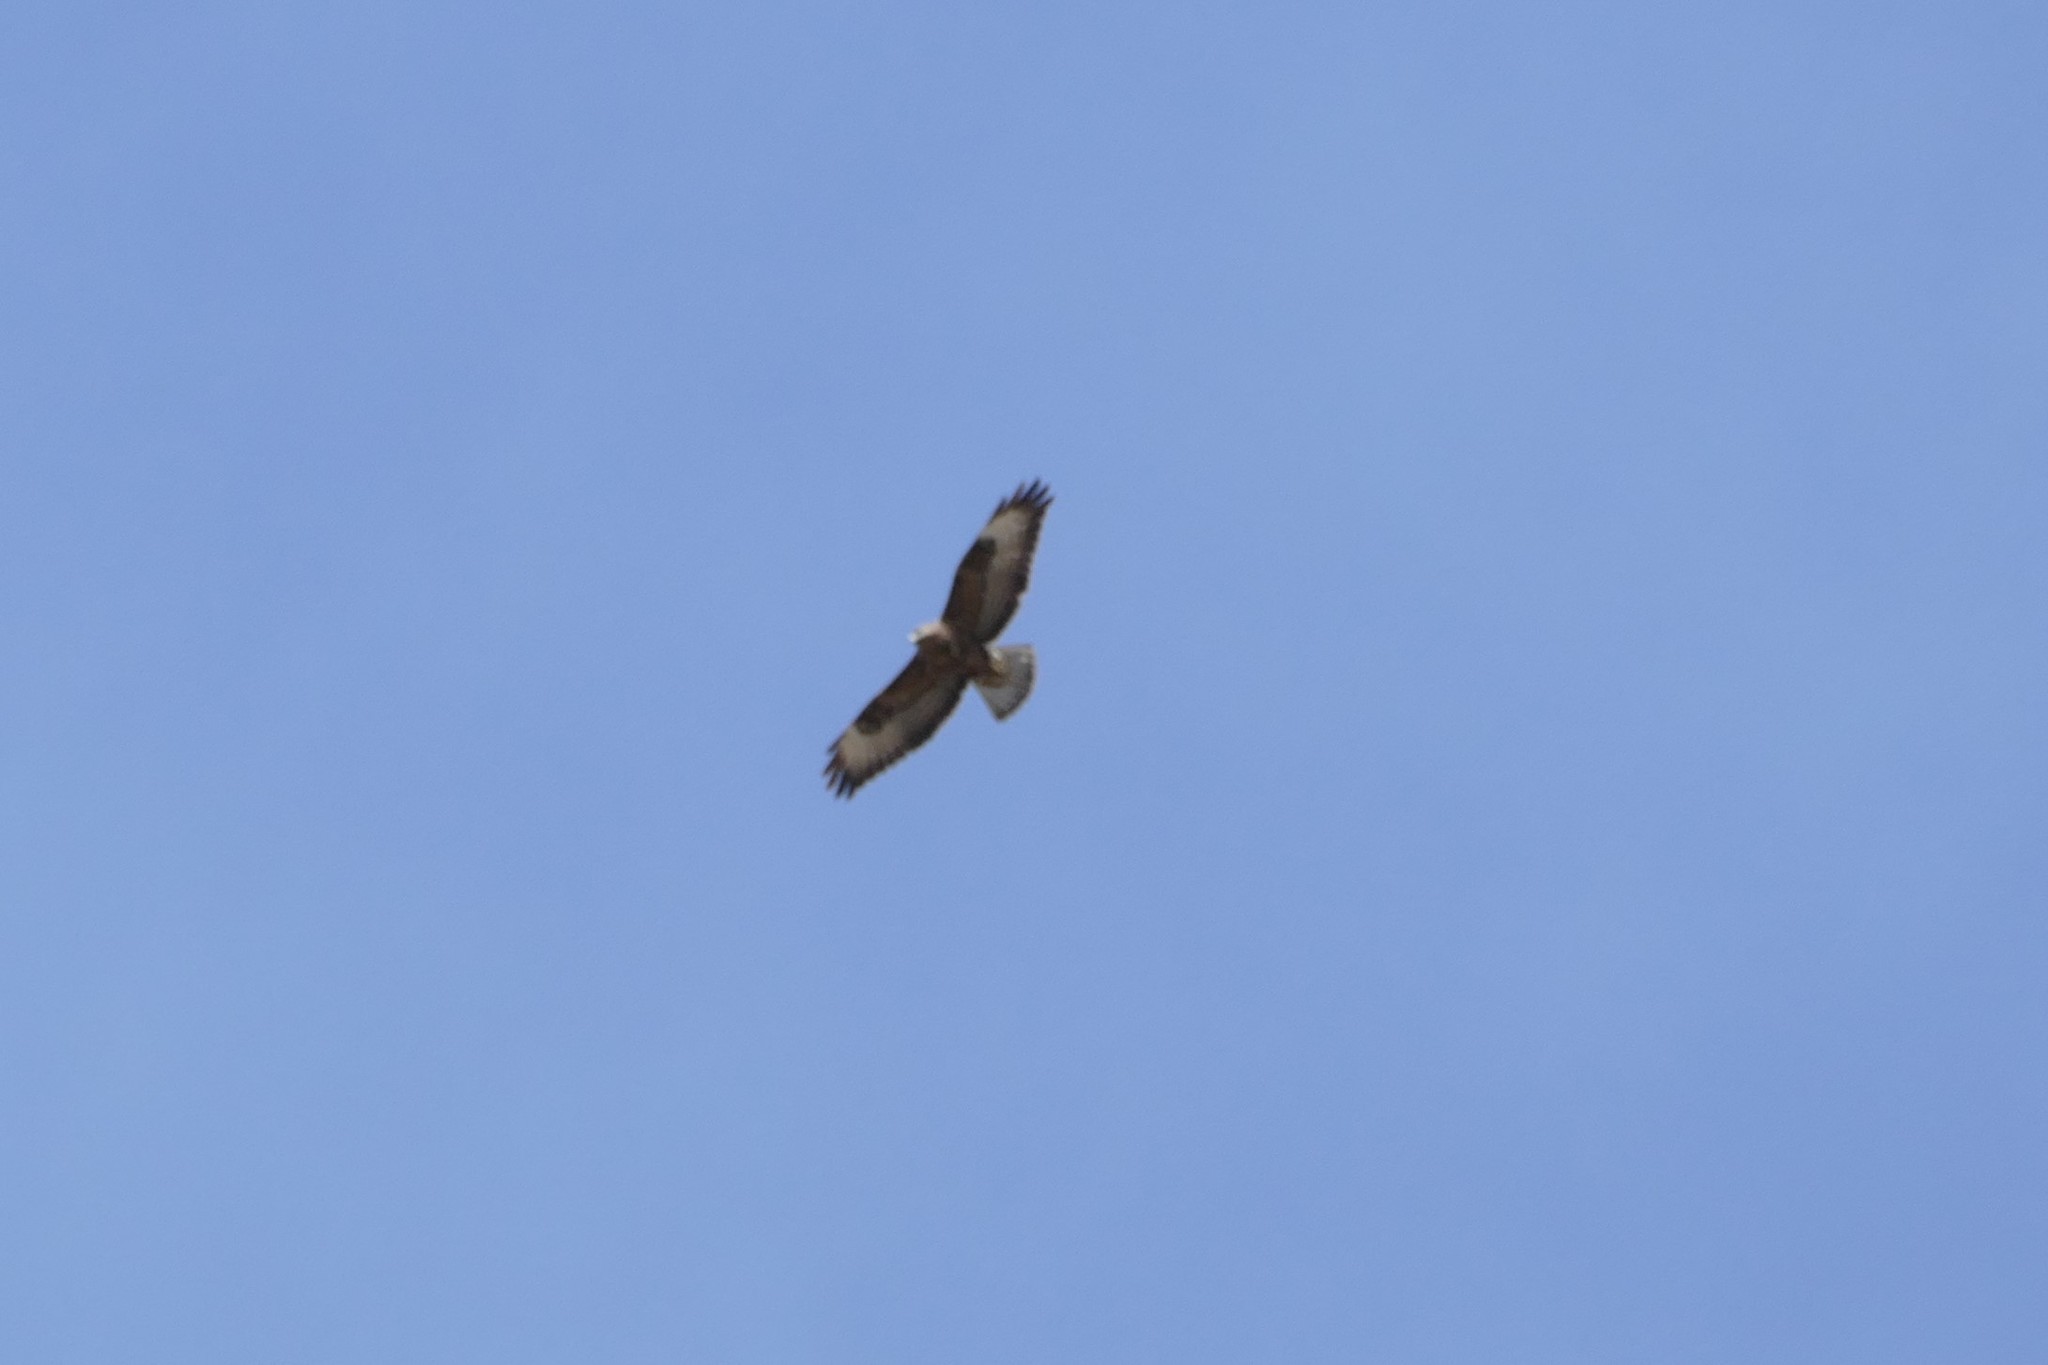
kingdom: Animalia
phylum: Chordata
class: Aves
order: Accipitriformes
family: Accipitridae
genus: Buteo
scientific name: Buteo buteo
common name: Common buzzard
